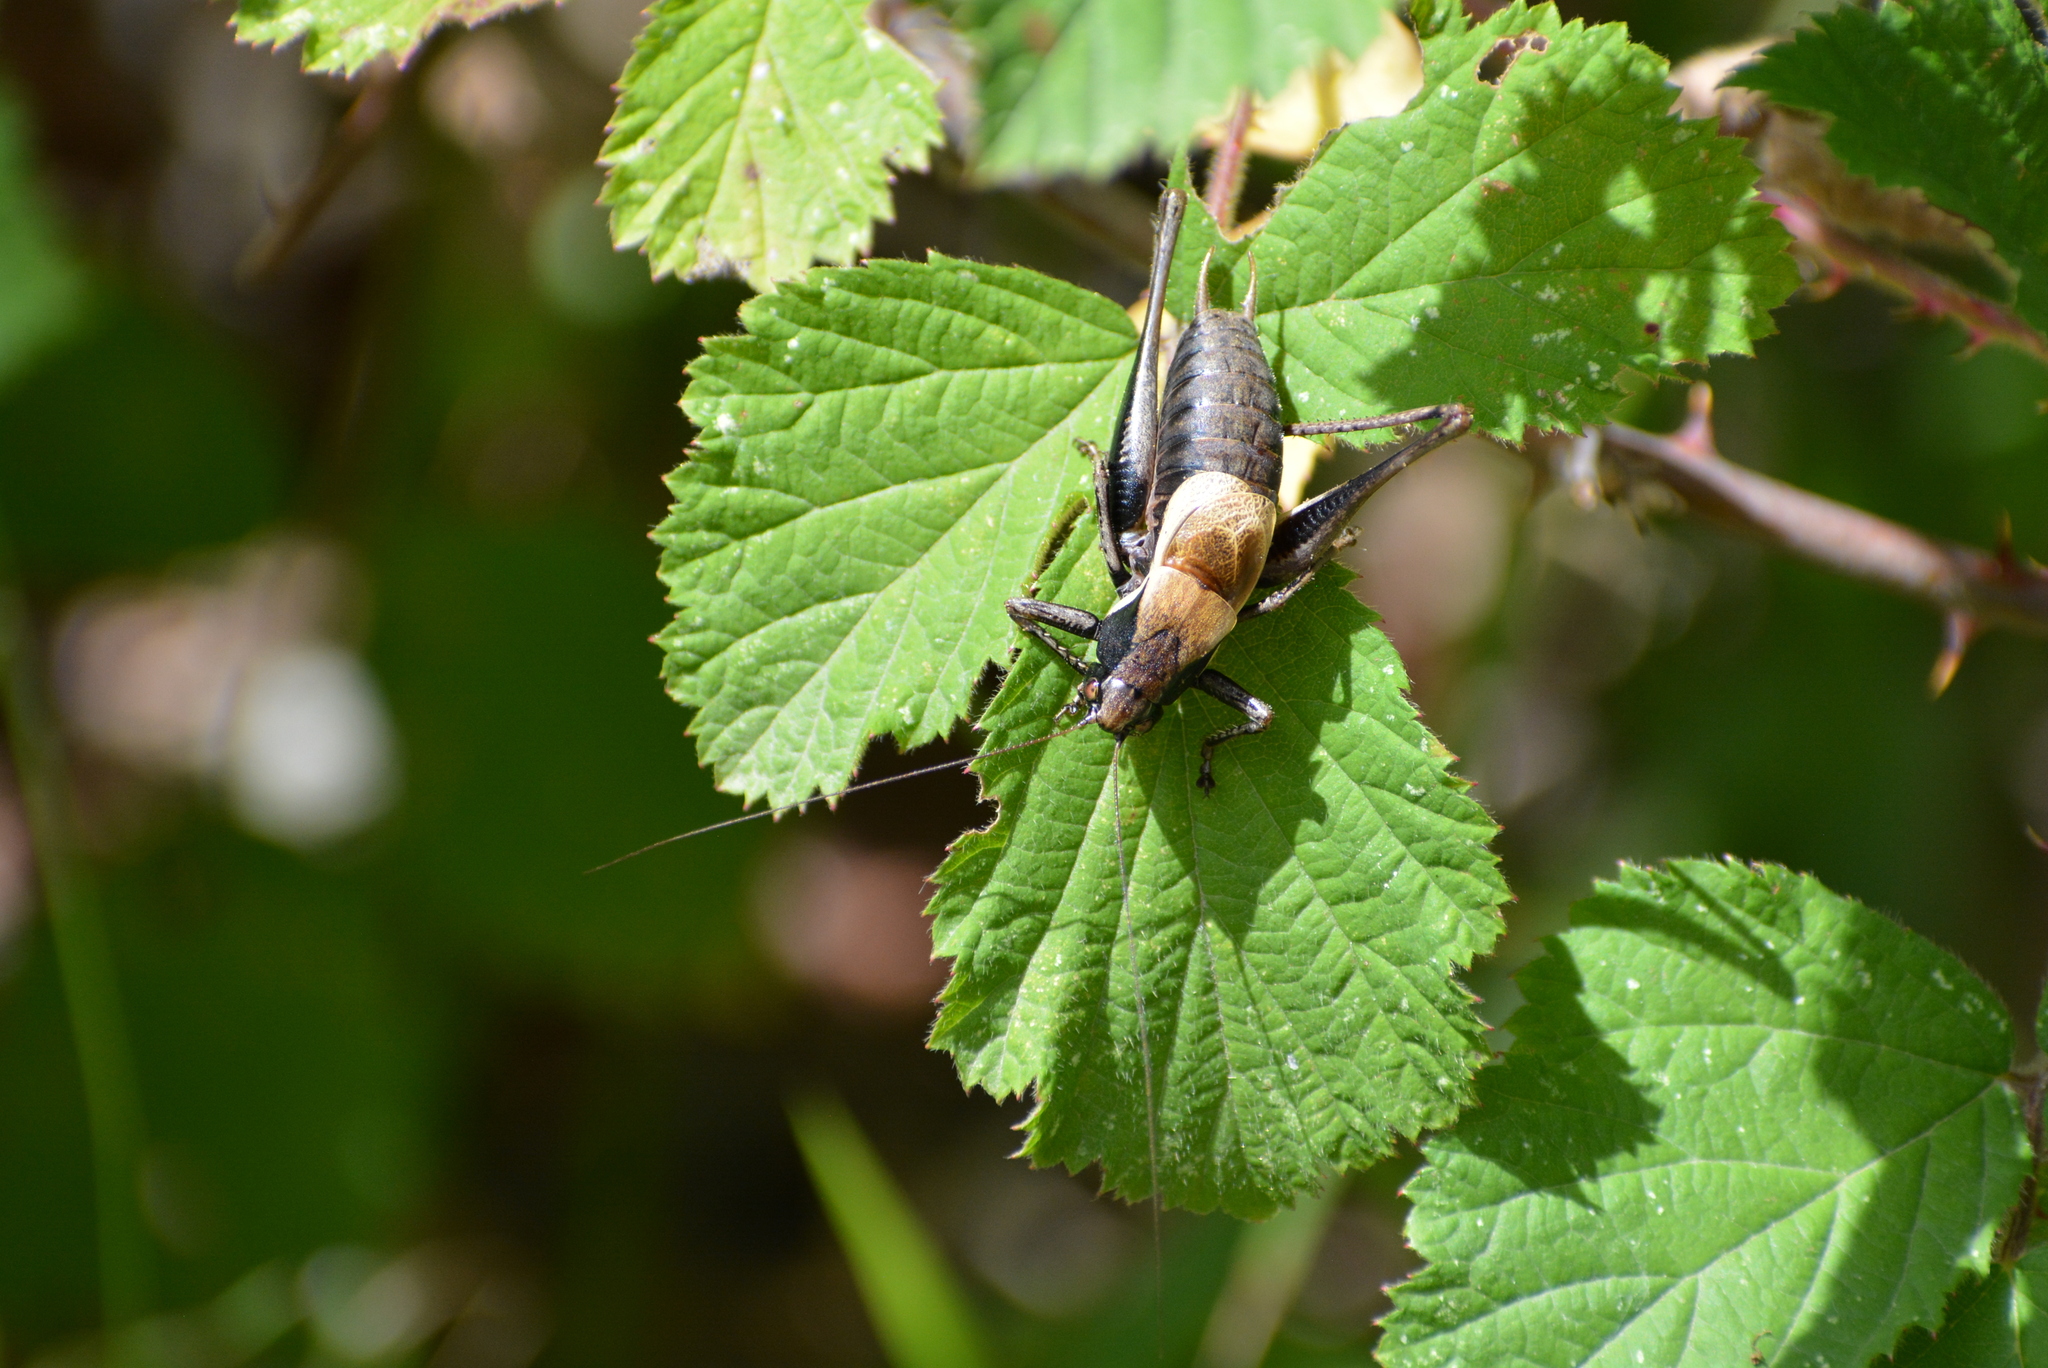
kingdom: Animalia
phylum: Arthropoda
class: Insecta
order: Orthoptera
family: Tettigoniidae
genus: Pholidoptera
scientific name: Pholidoptera aptera
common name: Alpine dark bush-cricket
